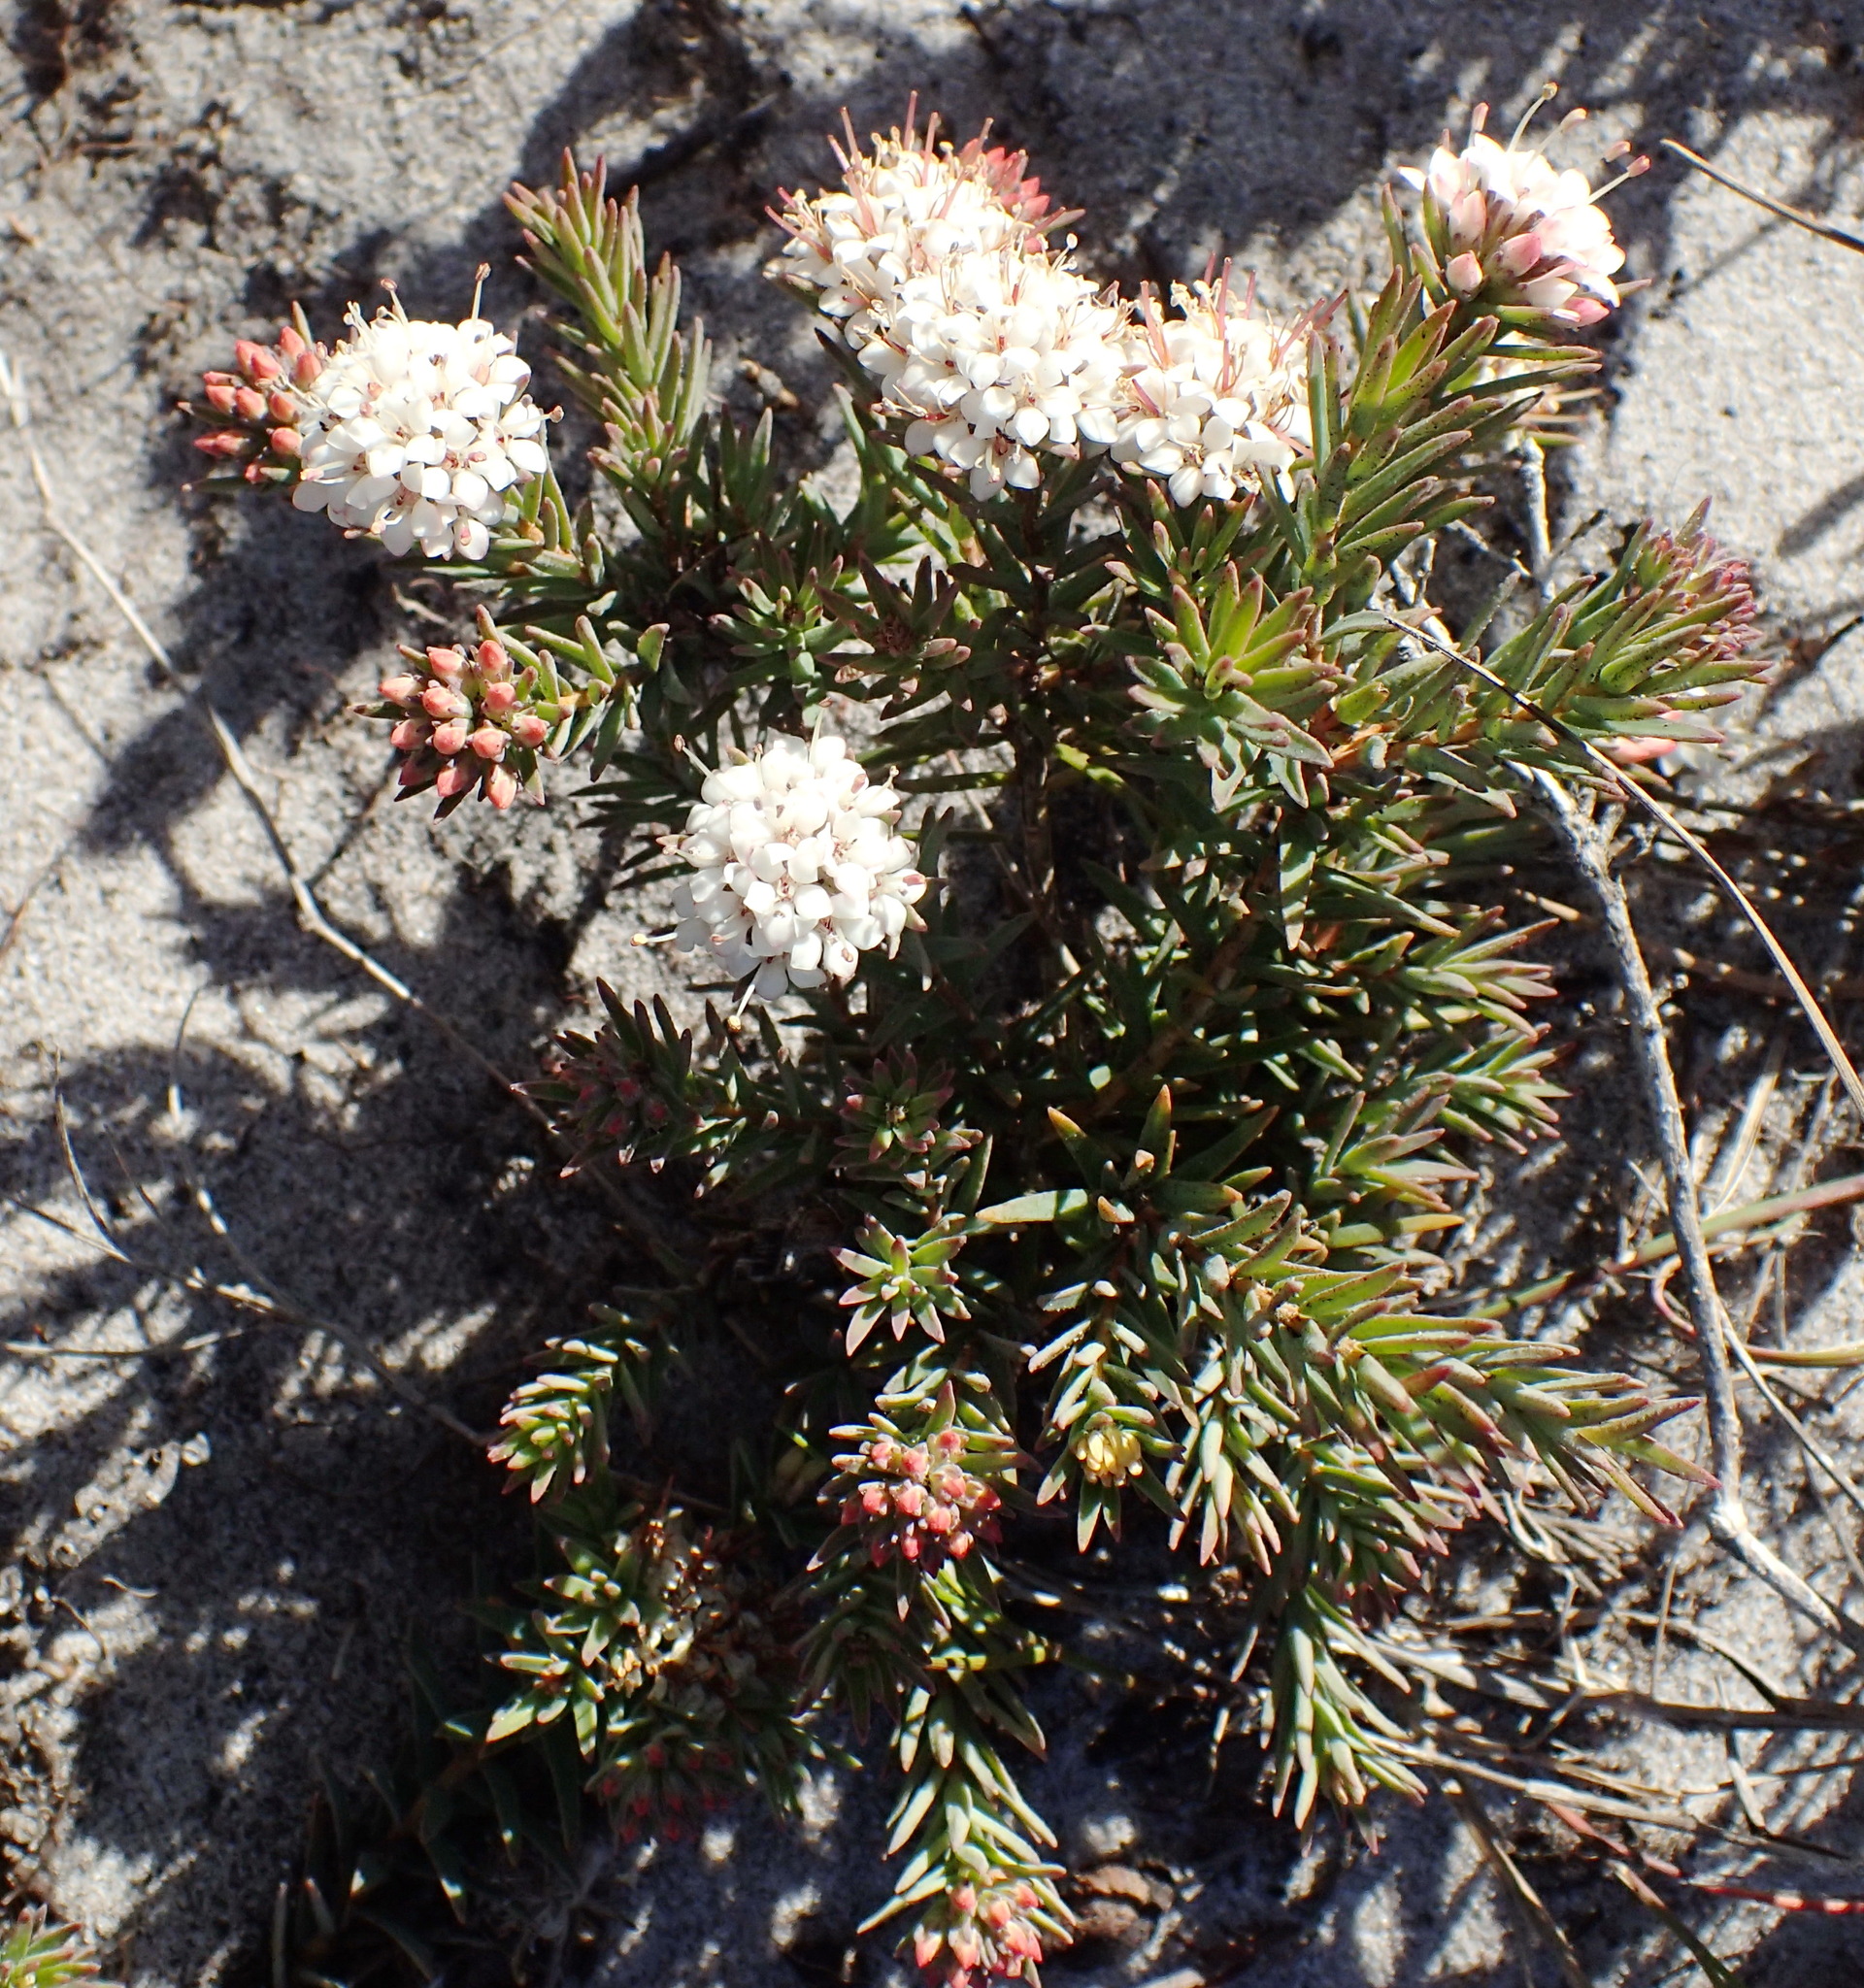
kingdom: Plantae
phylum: Tracheophyta
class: Magnoliopsida
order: Sapindales
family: Rutaceae
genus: Macrostylis
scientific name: Macrostylis villosa
